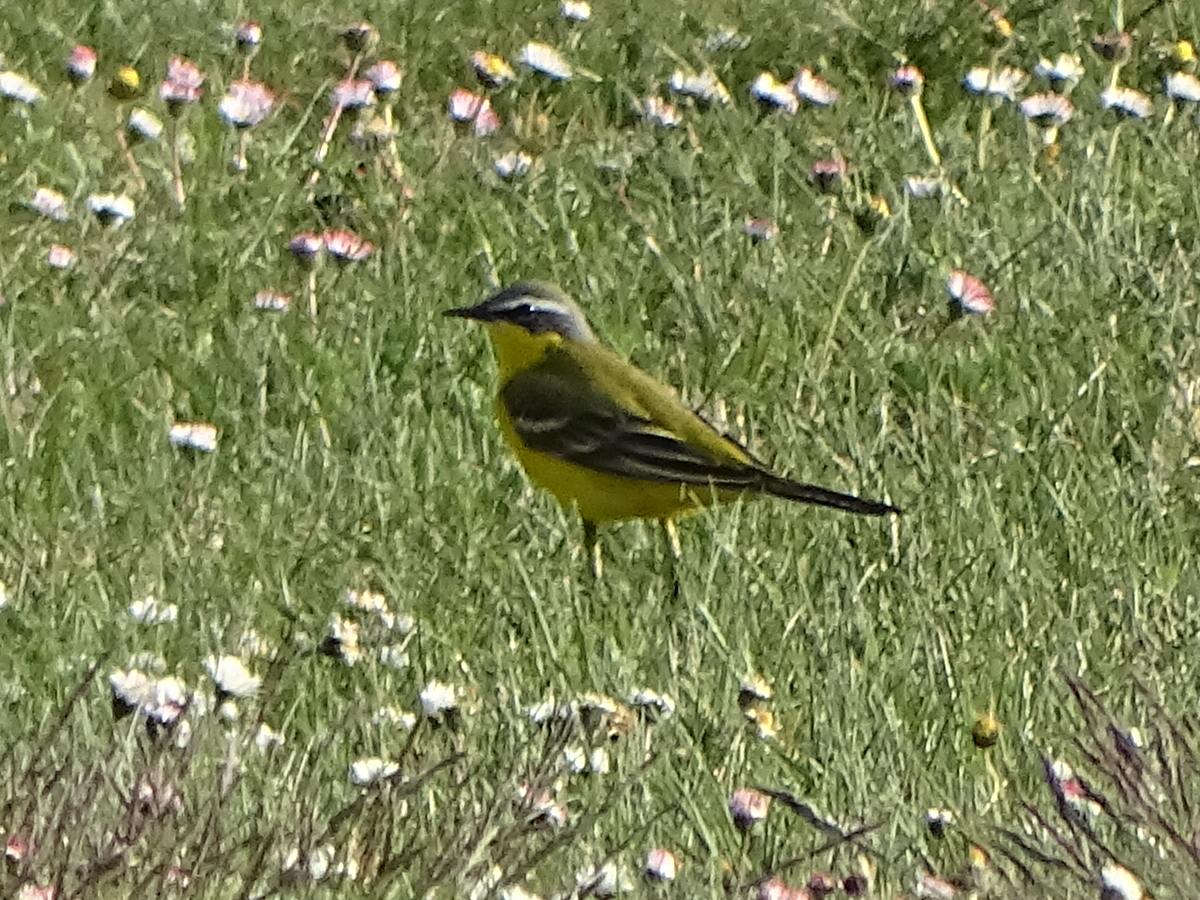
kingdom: Animalia
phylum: Chordata
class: Aves
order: Passeriformes
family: Motacillidae
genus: Motacilla
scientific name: Motacilla flava
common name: Western yellow wagtail
